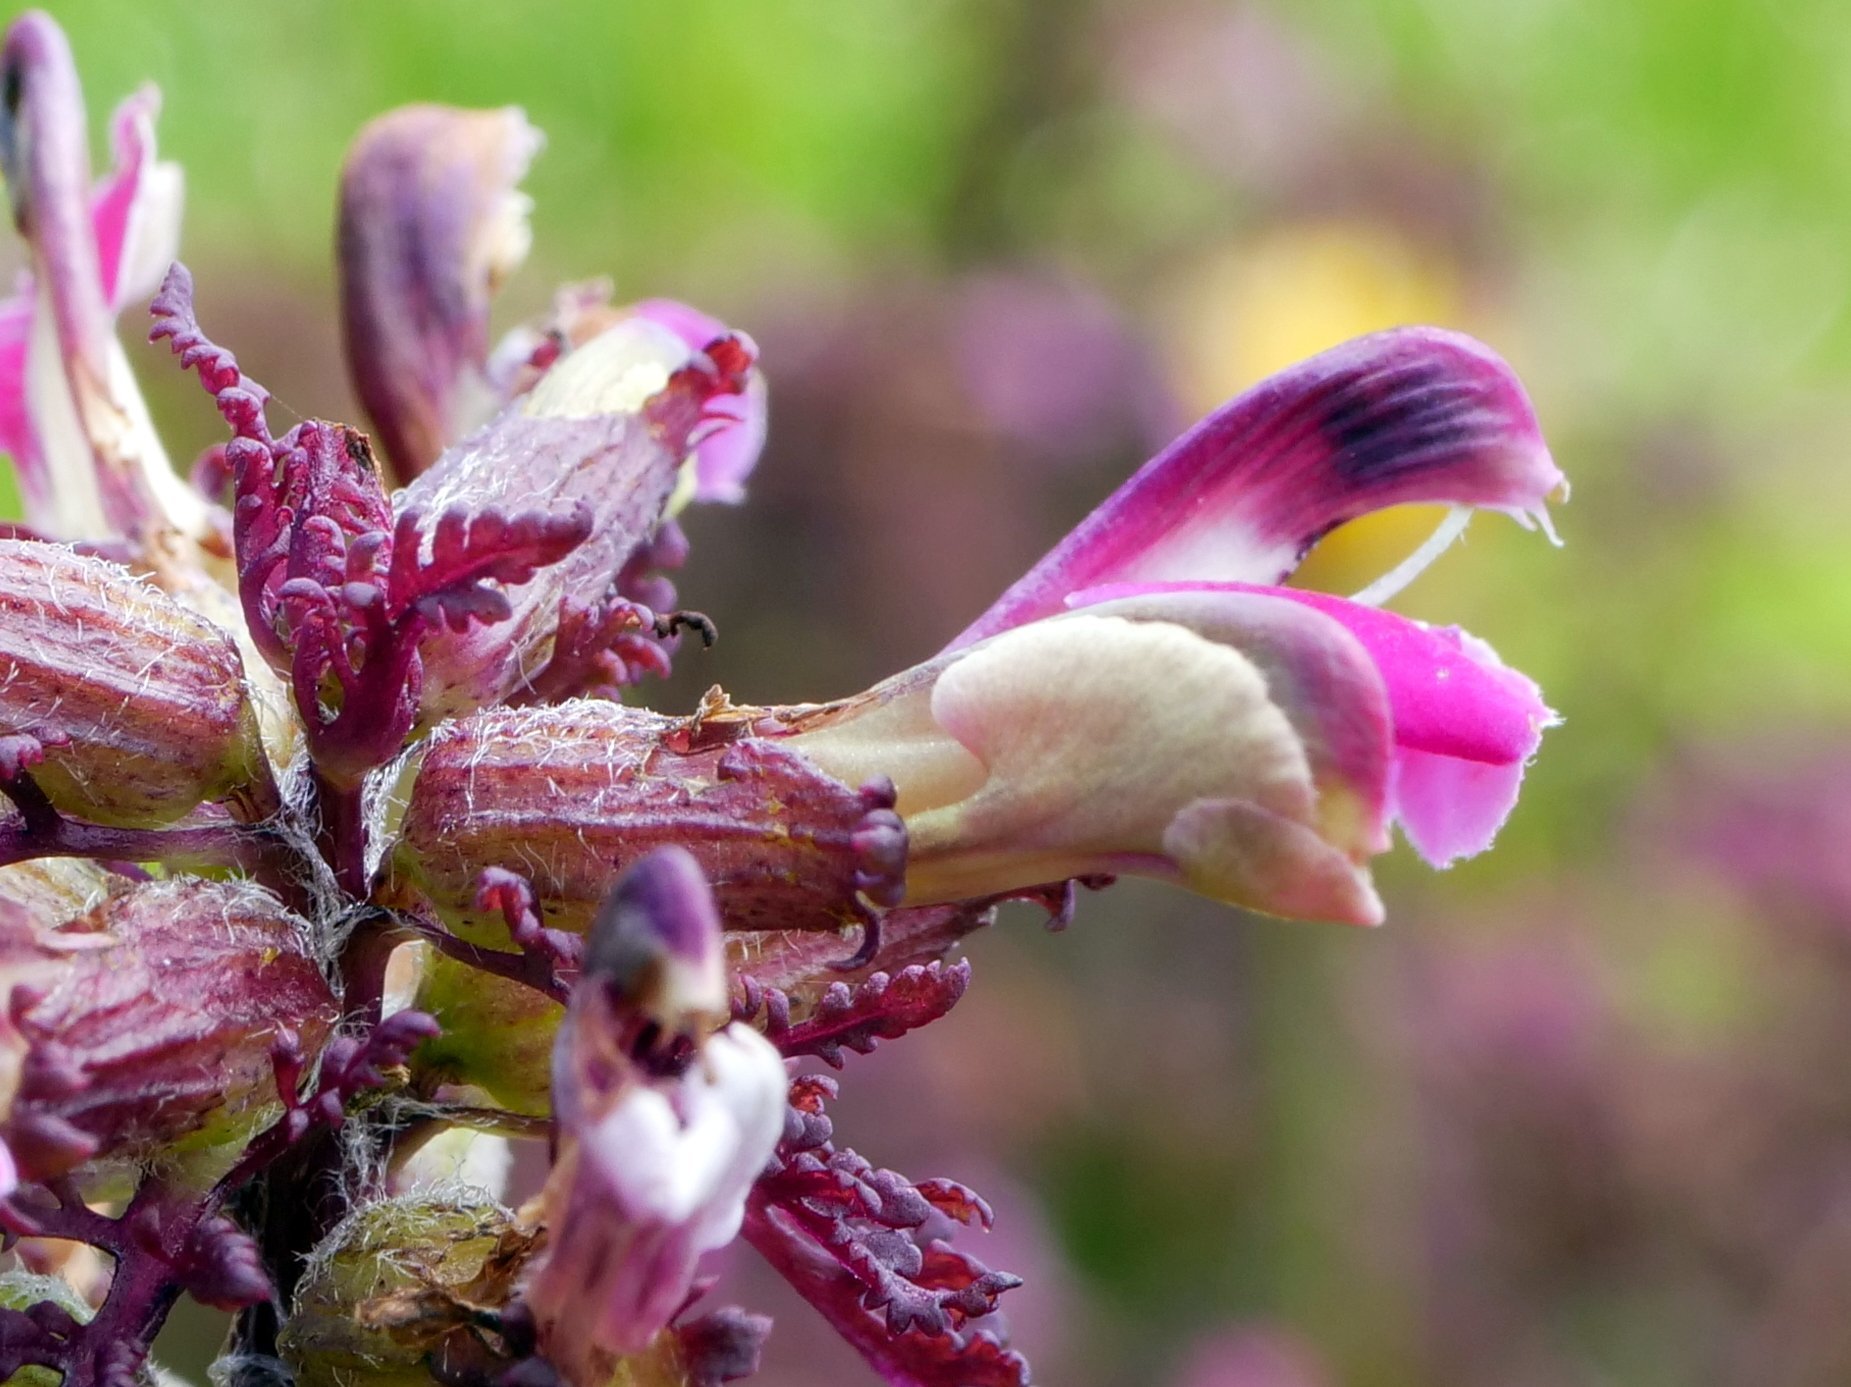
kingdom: Plantae
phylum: Tracheophyta
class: Magnoliopsida
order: Lamiales
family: Orobanchaceae
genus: Pedicularis
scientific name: Pedicularis palustris
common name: Marsh lousewort
